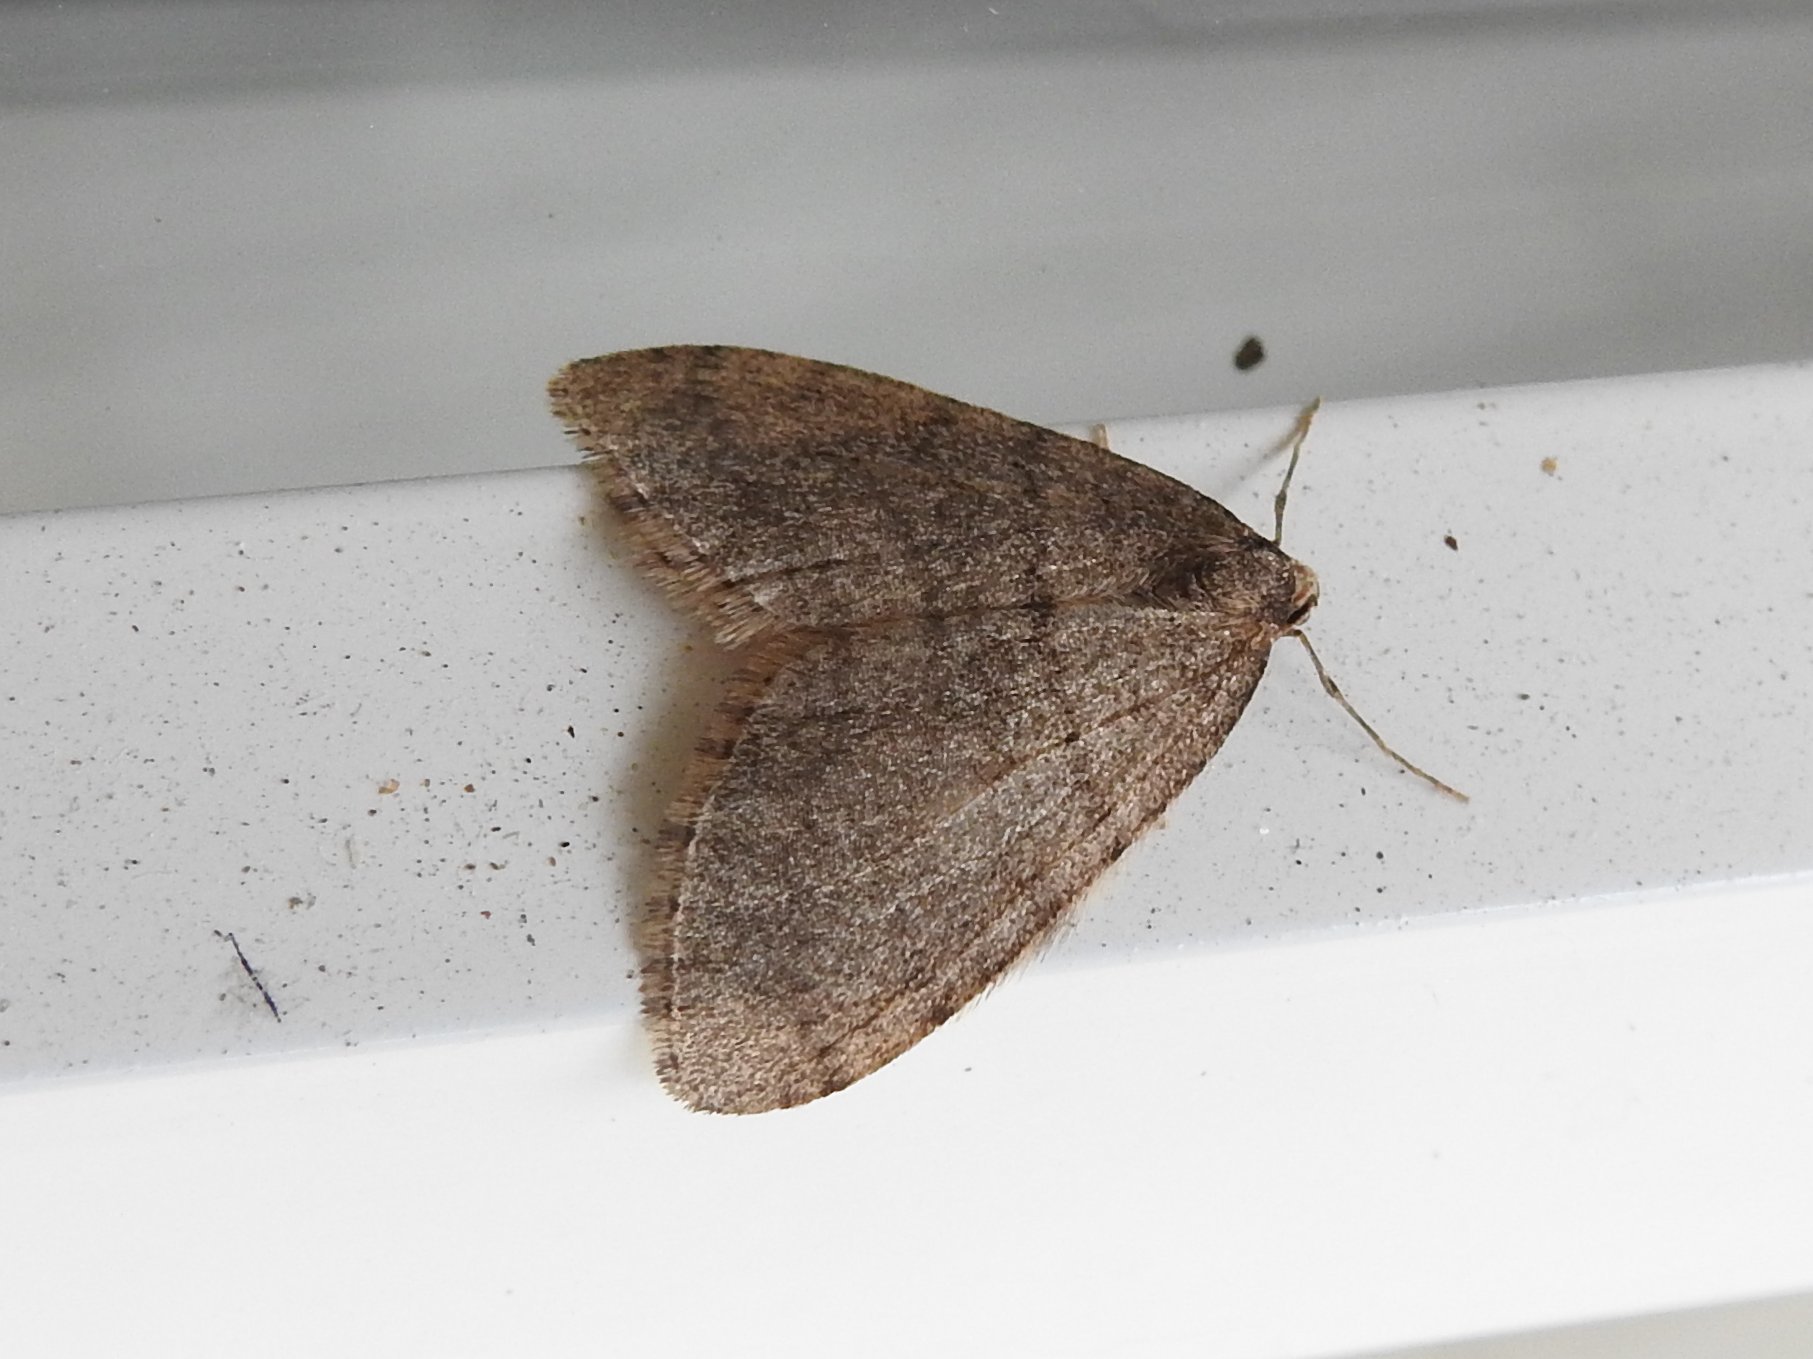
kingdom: Animalia
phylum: Arthropoda
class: Insecta
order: Lepidoptera
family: Geometridae
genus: Operophtera
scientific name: Operophtera brumata
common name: Winter moth
